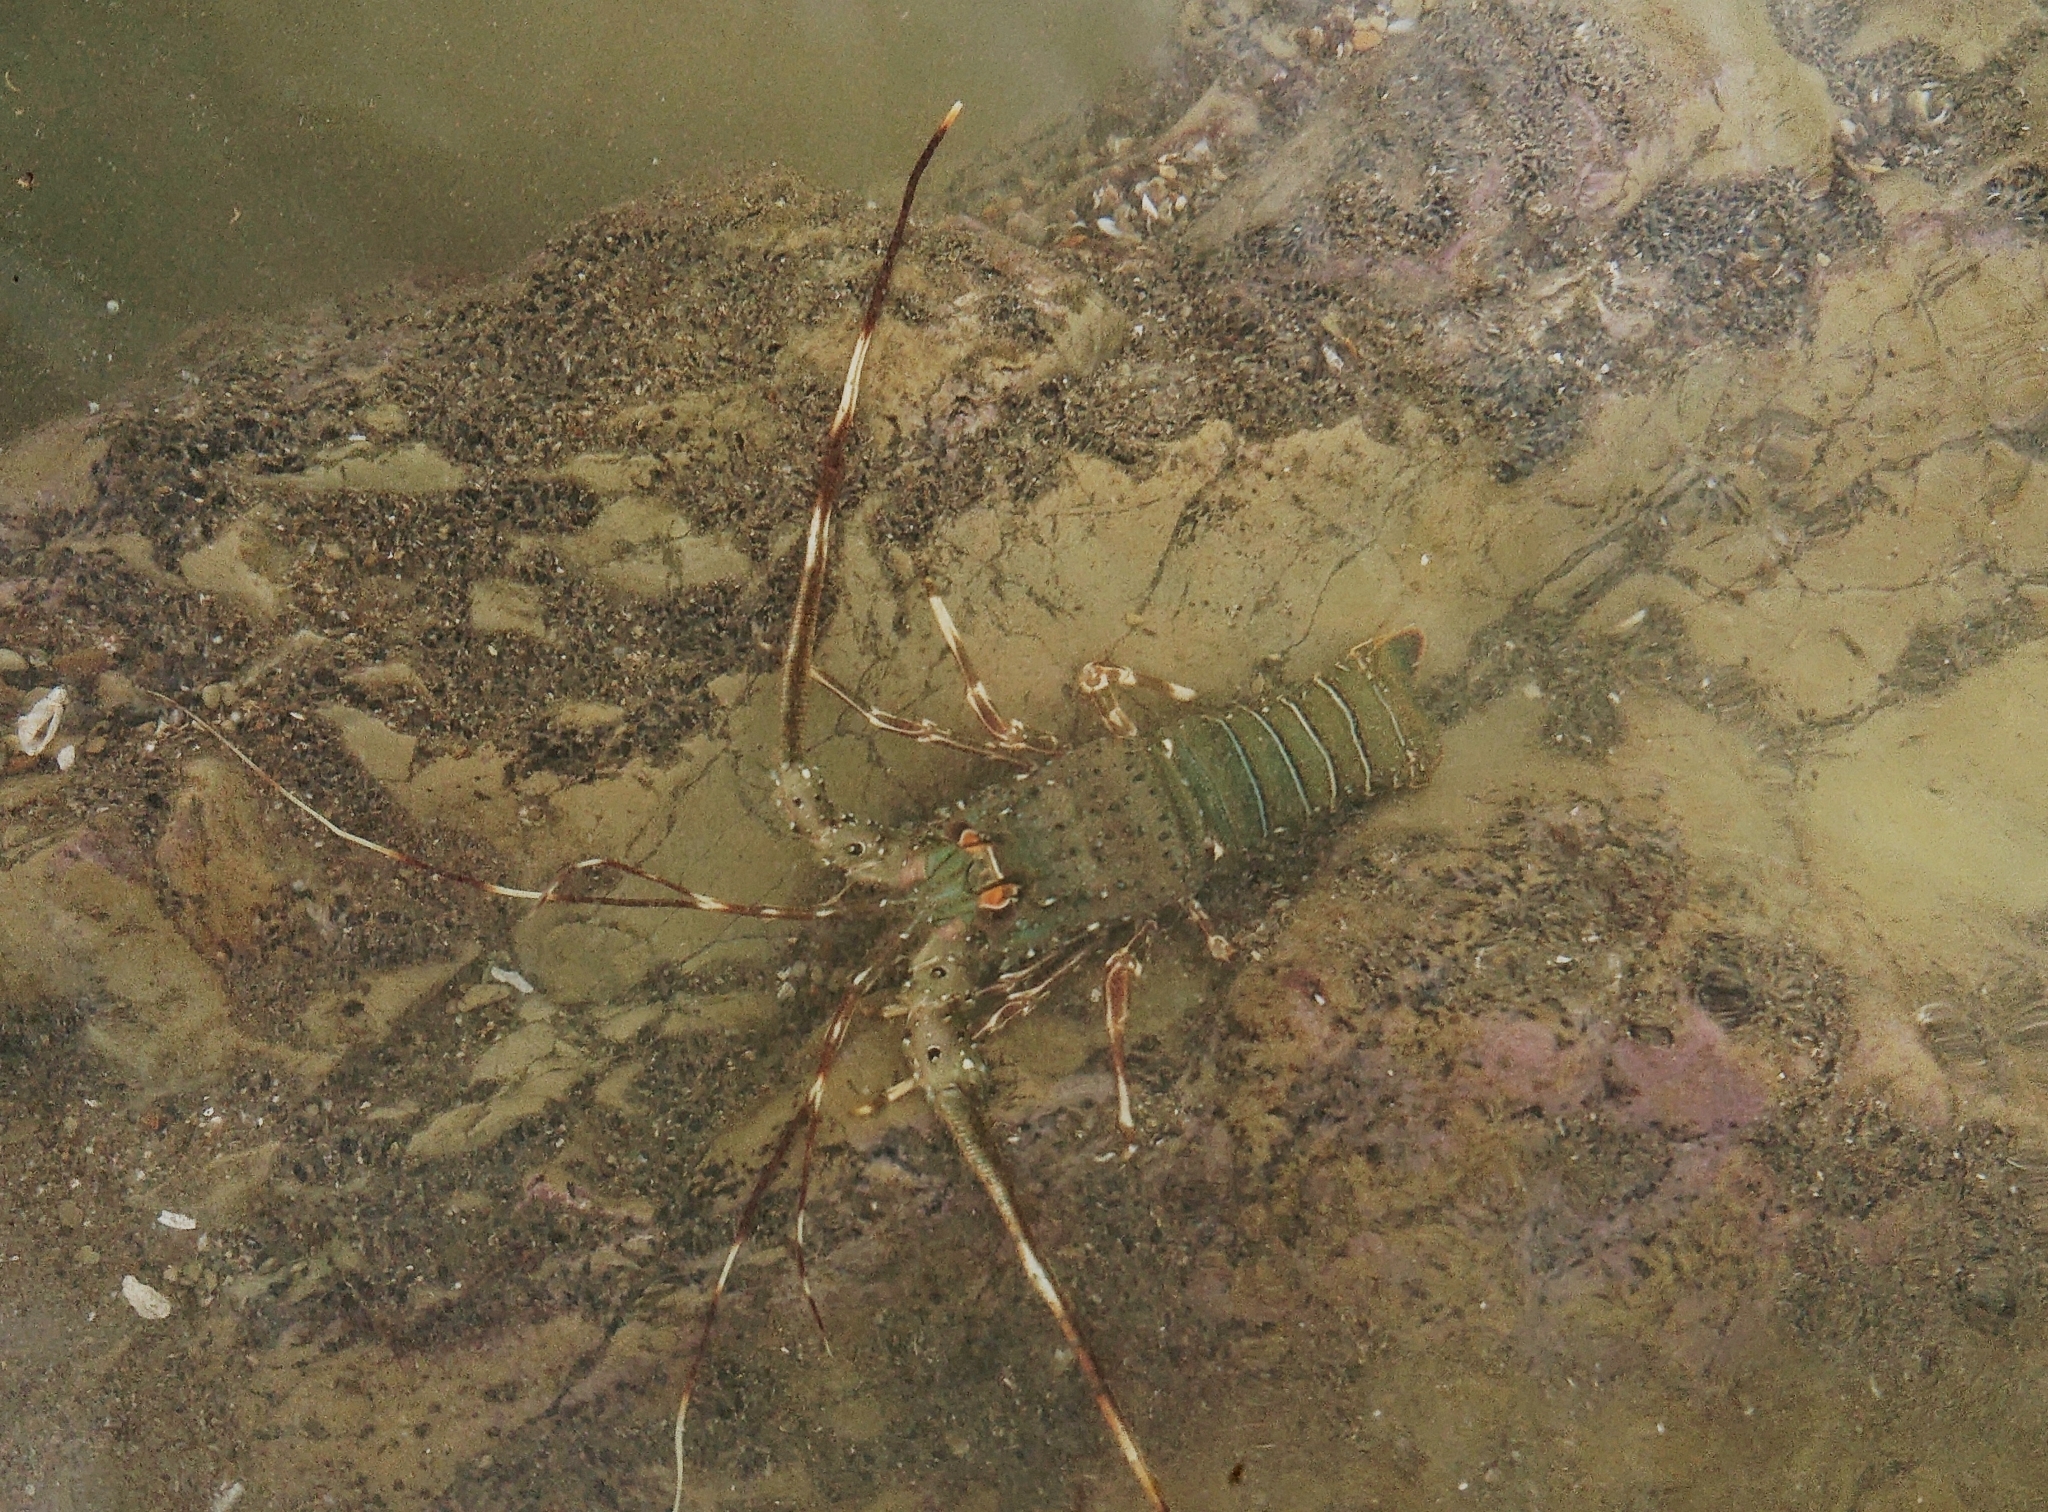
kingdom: Animalia
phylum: Arthropoda
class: Malacostraca
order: Decapoda
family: Palinuridae
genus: Panulirus
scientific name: Panulirus gracilis
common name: Green spiny lobster
